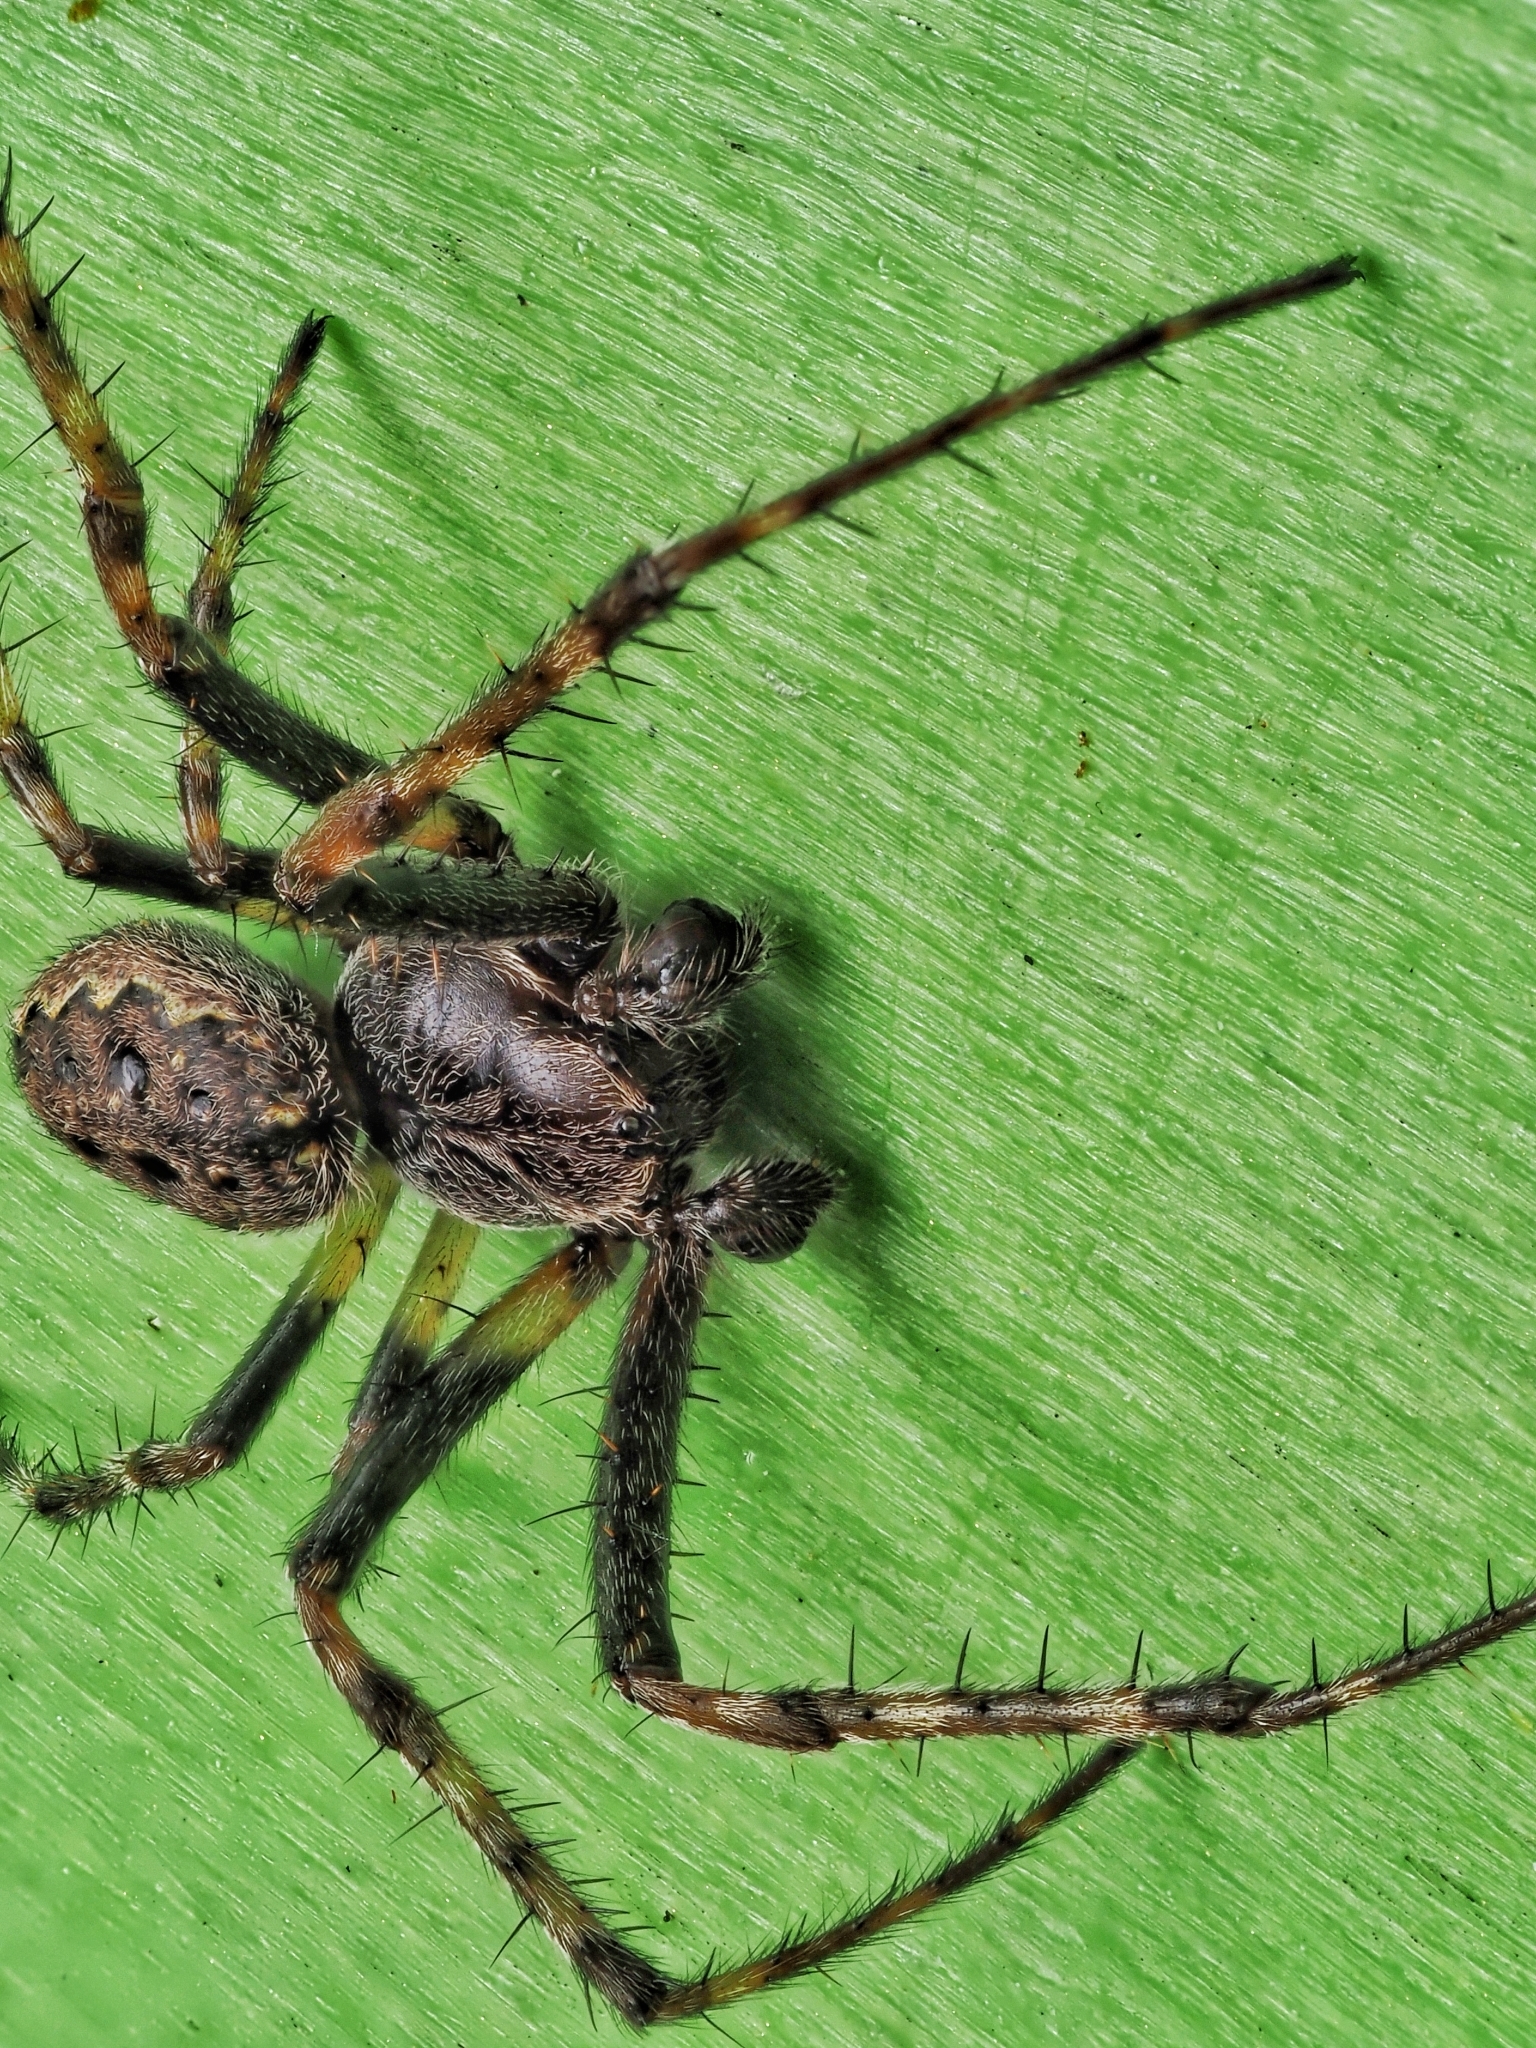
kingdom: Animalia
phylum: Arthropoda
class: Arachnida
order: Araneae
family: Araneidae
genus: Nuctenea
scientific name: Nuctenea umbratica
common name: Toad spider
